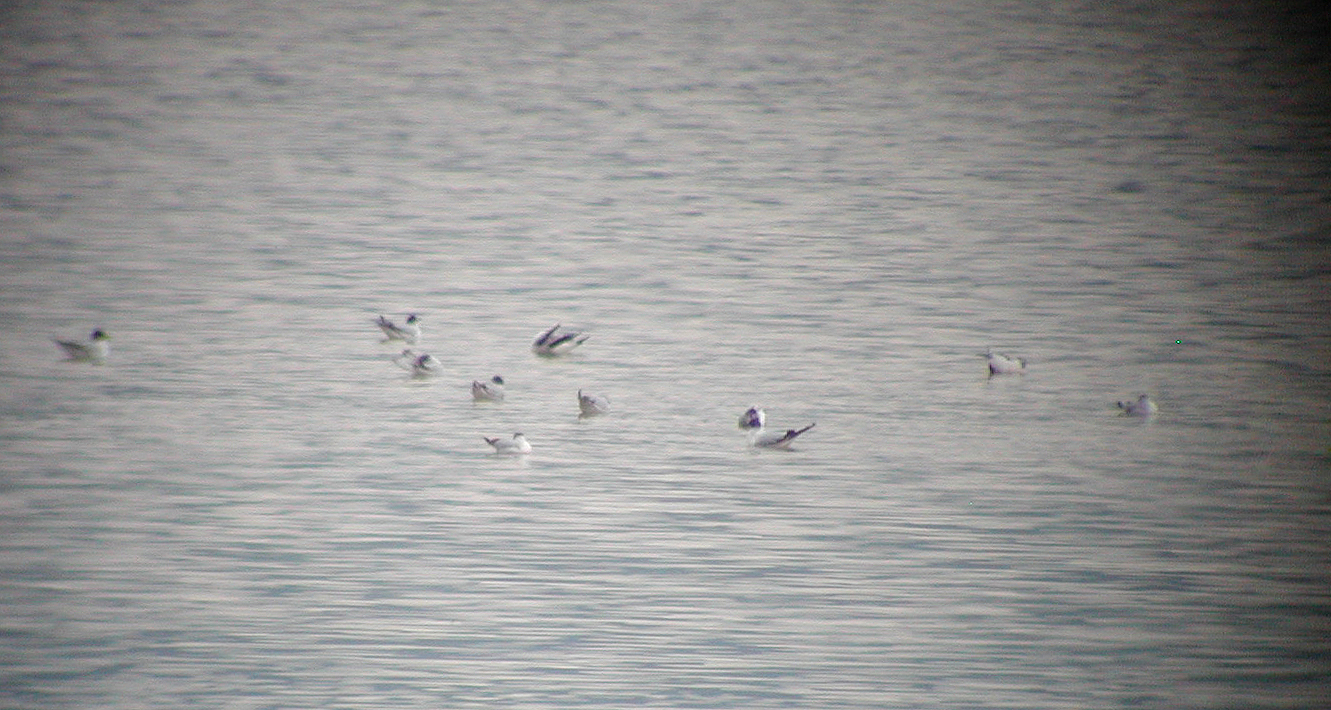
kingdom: Animalia
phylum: Chordata
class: Aves
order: Charadriiformes
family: Laridae
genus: Hydrocoloeus
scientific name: Hydrocoloeus minutus
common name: Little gull
